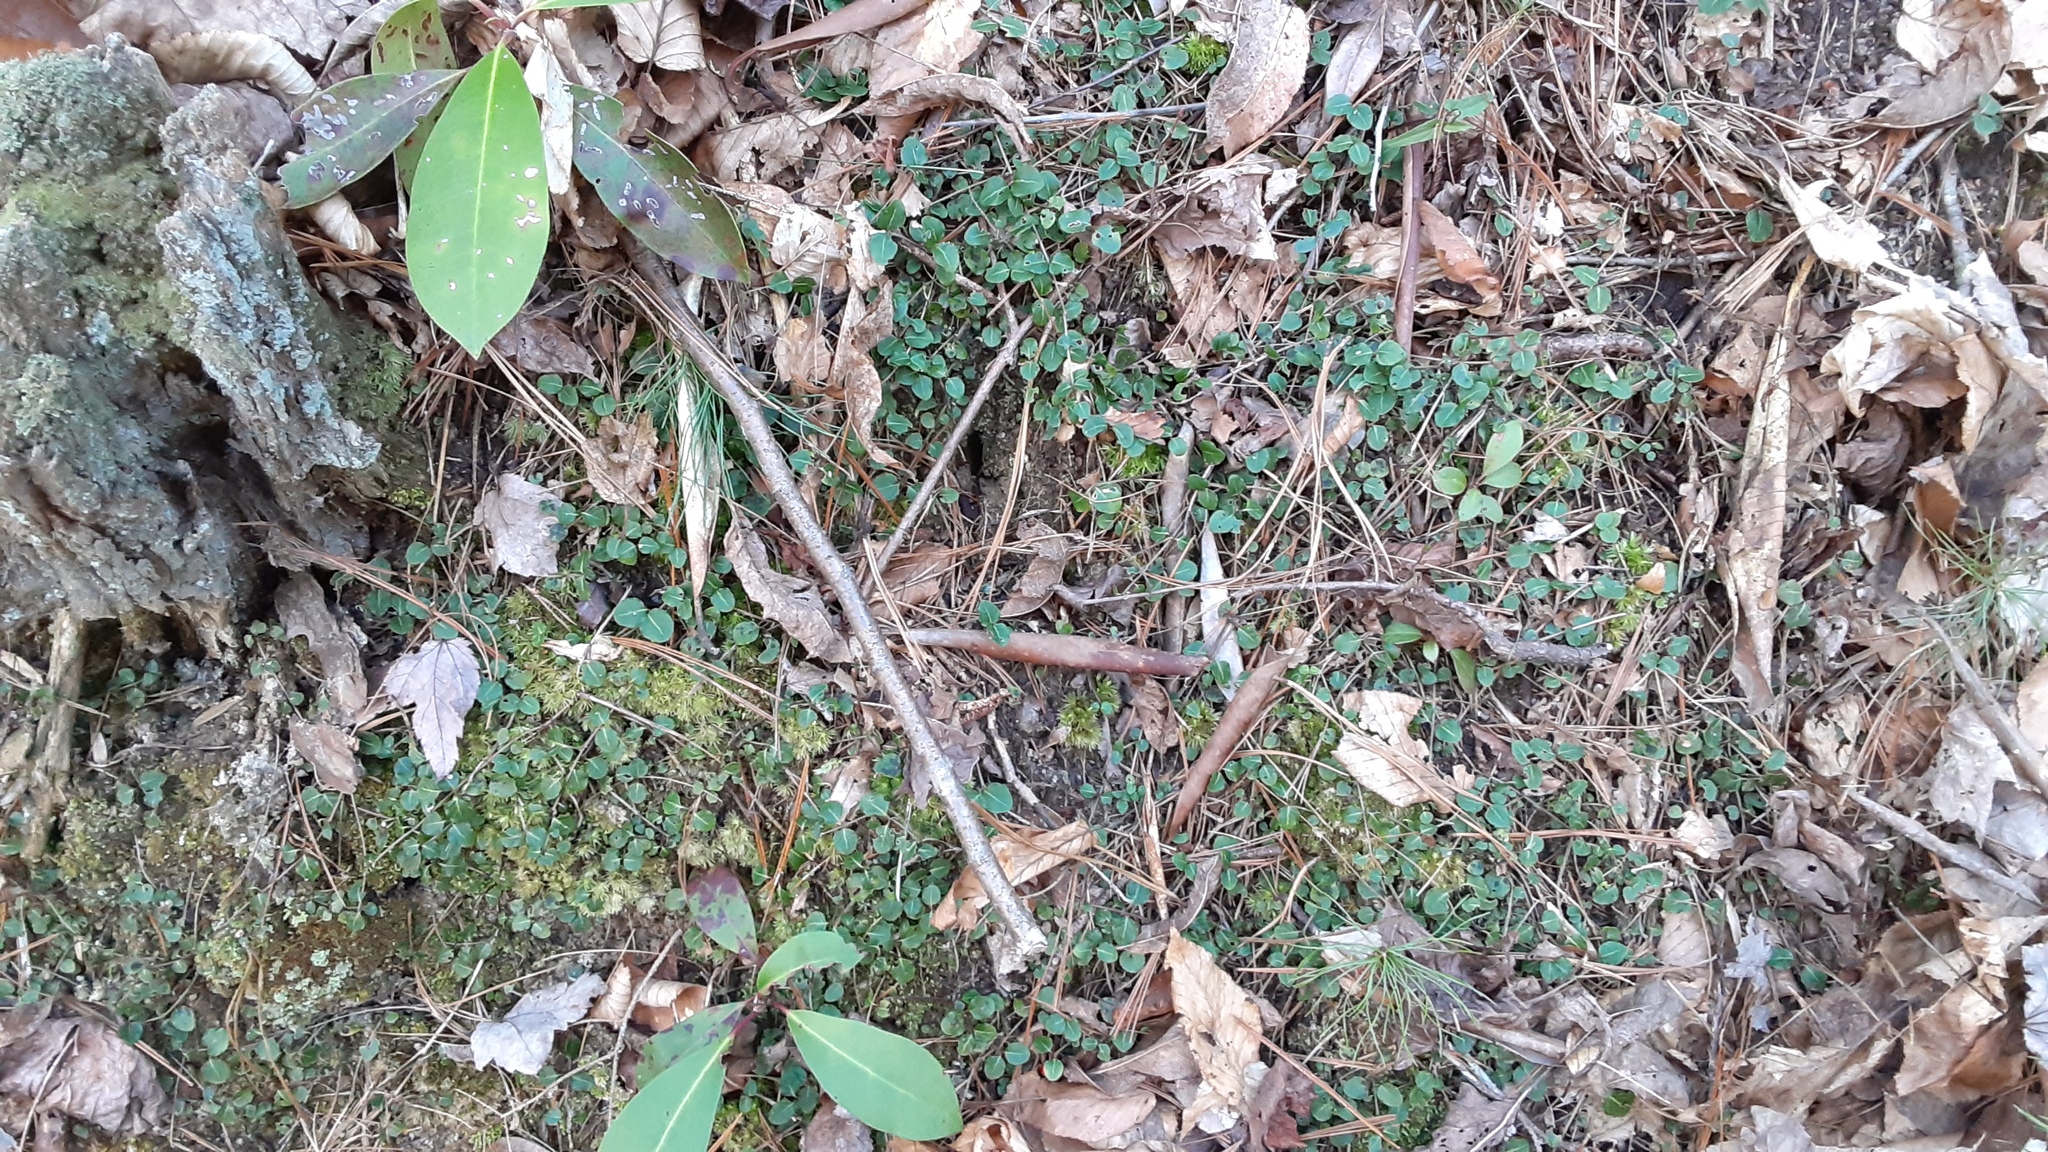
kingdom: Plantae
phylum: Tracheophyta
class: Magnoliopsida
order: Gentianales
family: Rubiaceae
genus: Mitchella
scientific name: Mitchella repens
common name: Partridge-berry
